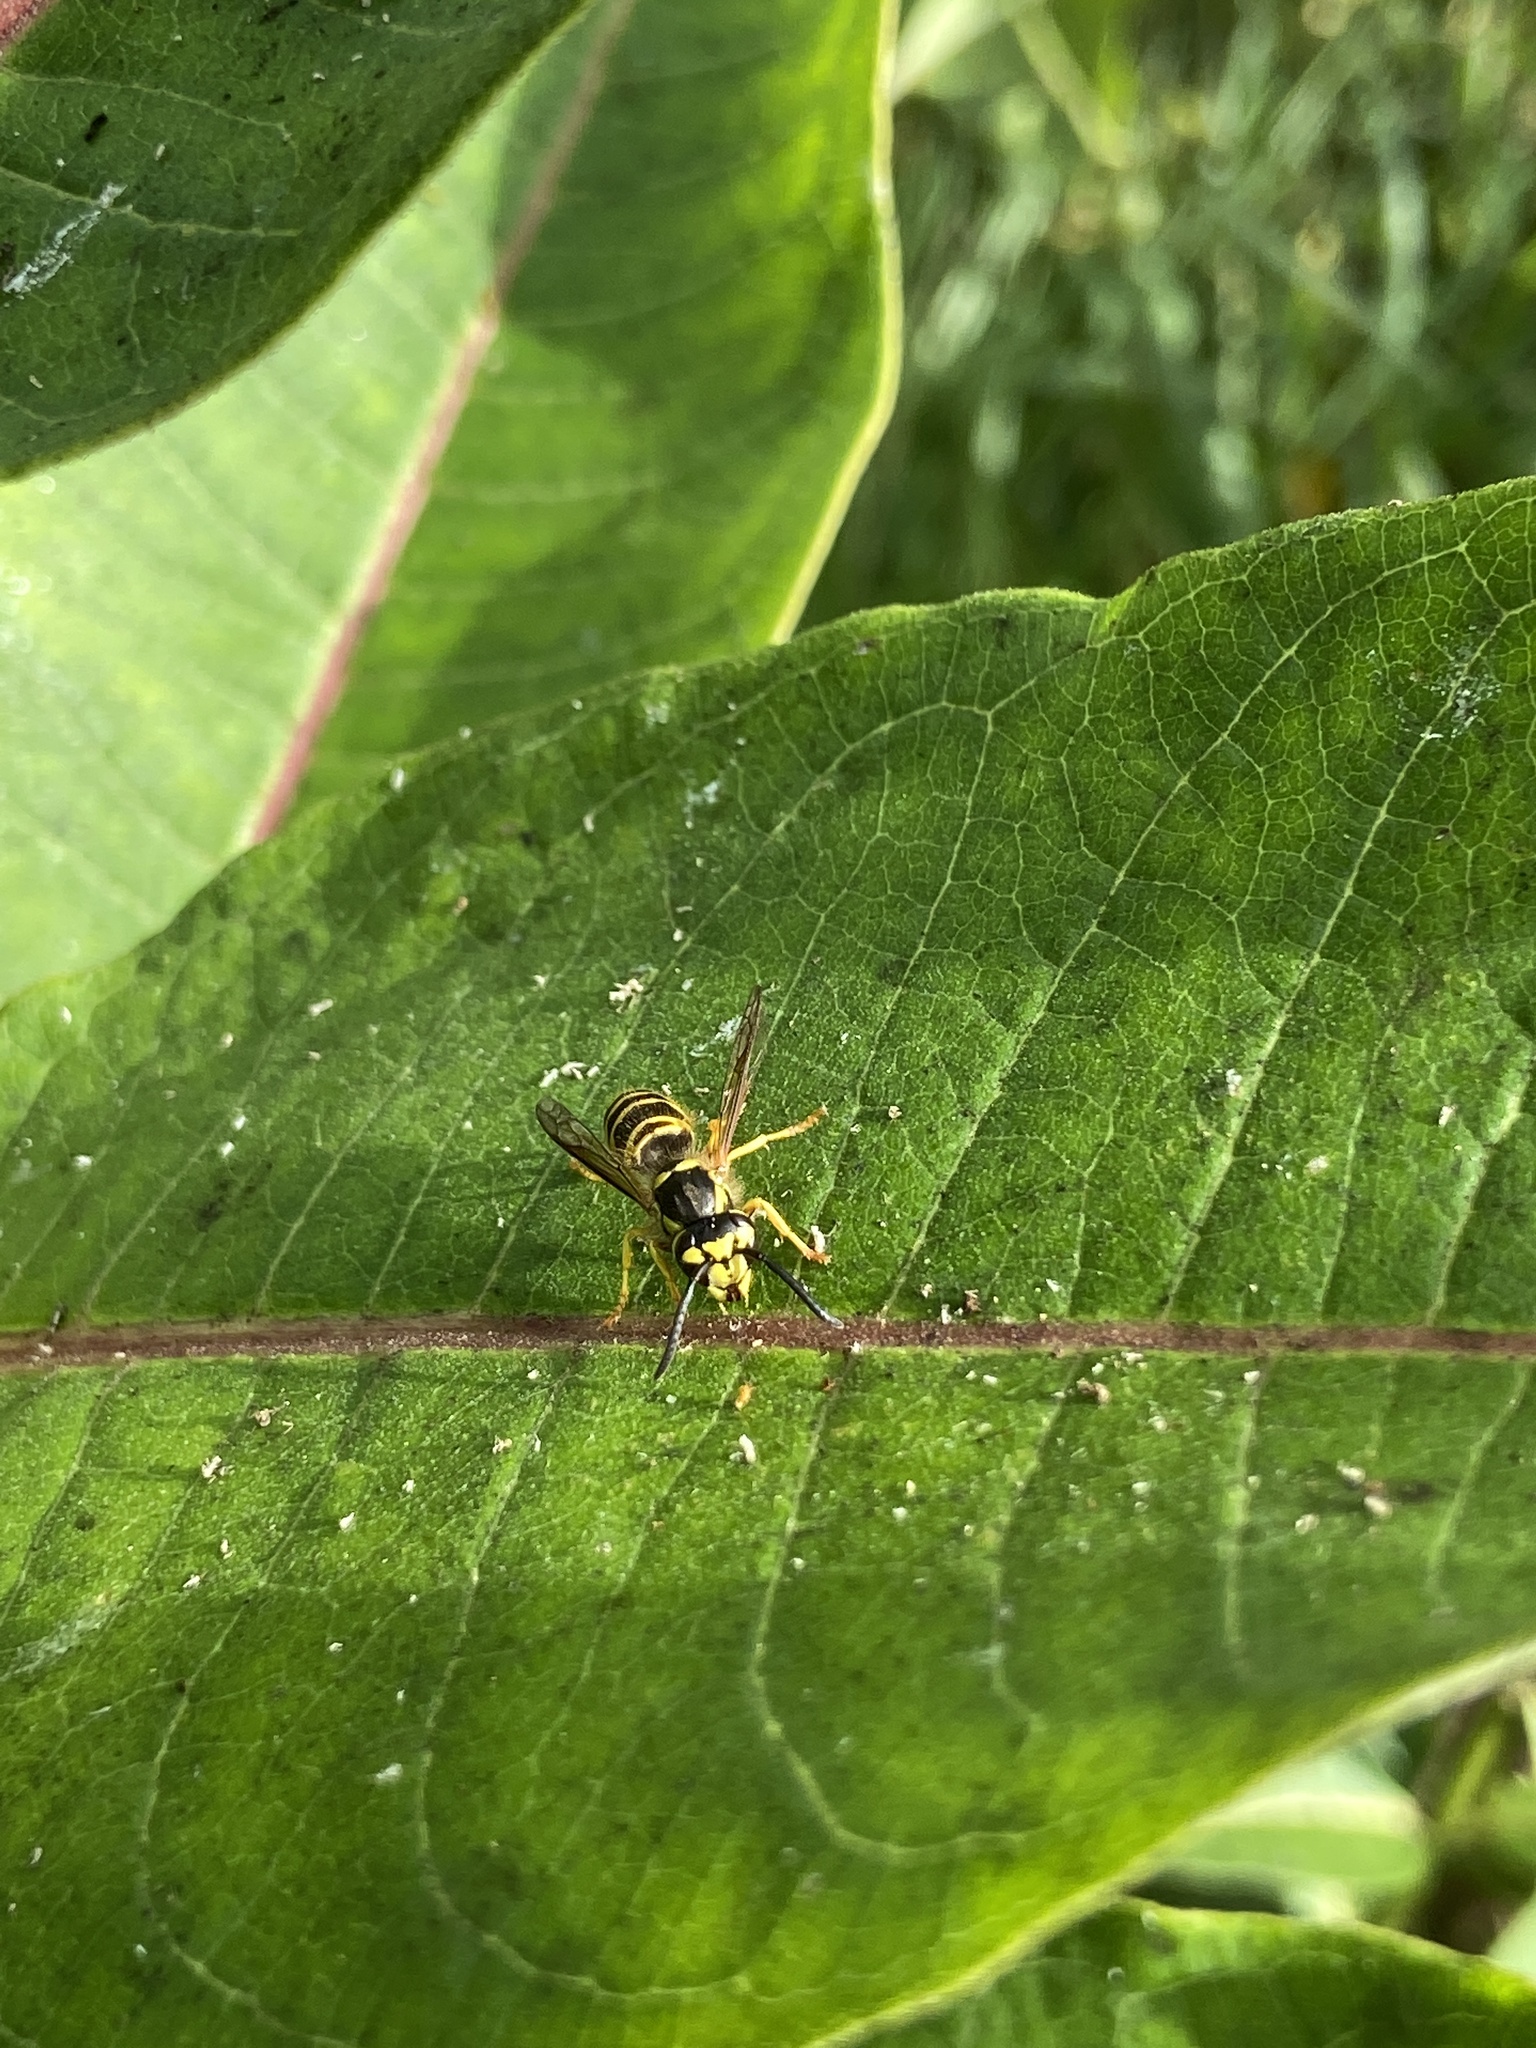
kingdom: Animalia
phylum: Arthropoda
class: Insecta
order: Hymenoptera
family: Vespidae
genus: Vespula
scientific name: Vespula maculifrons
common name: Eastern yellowjacket
